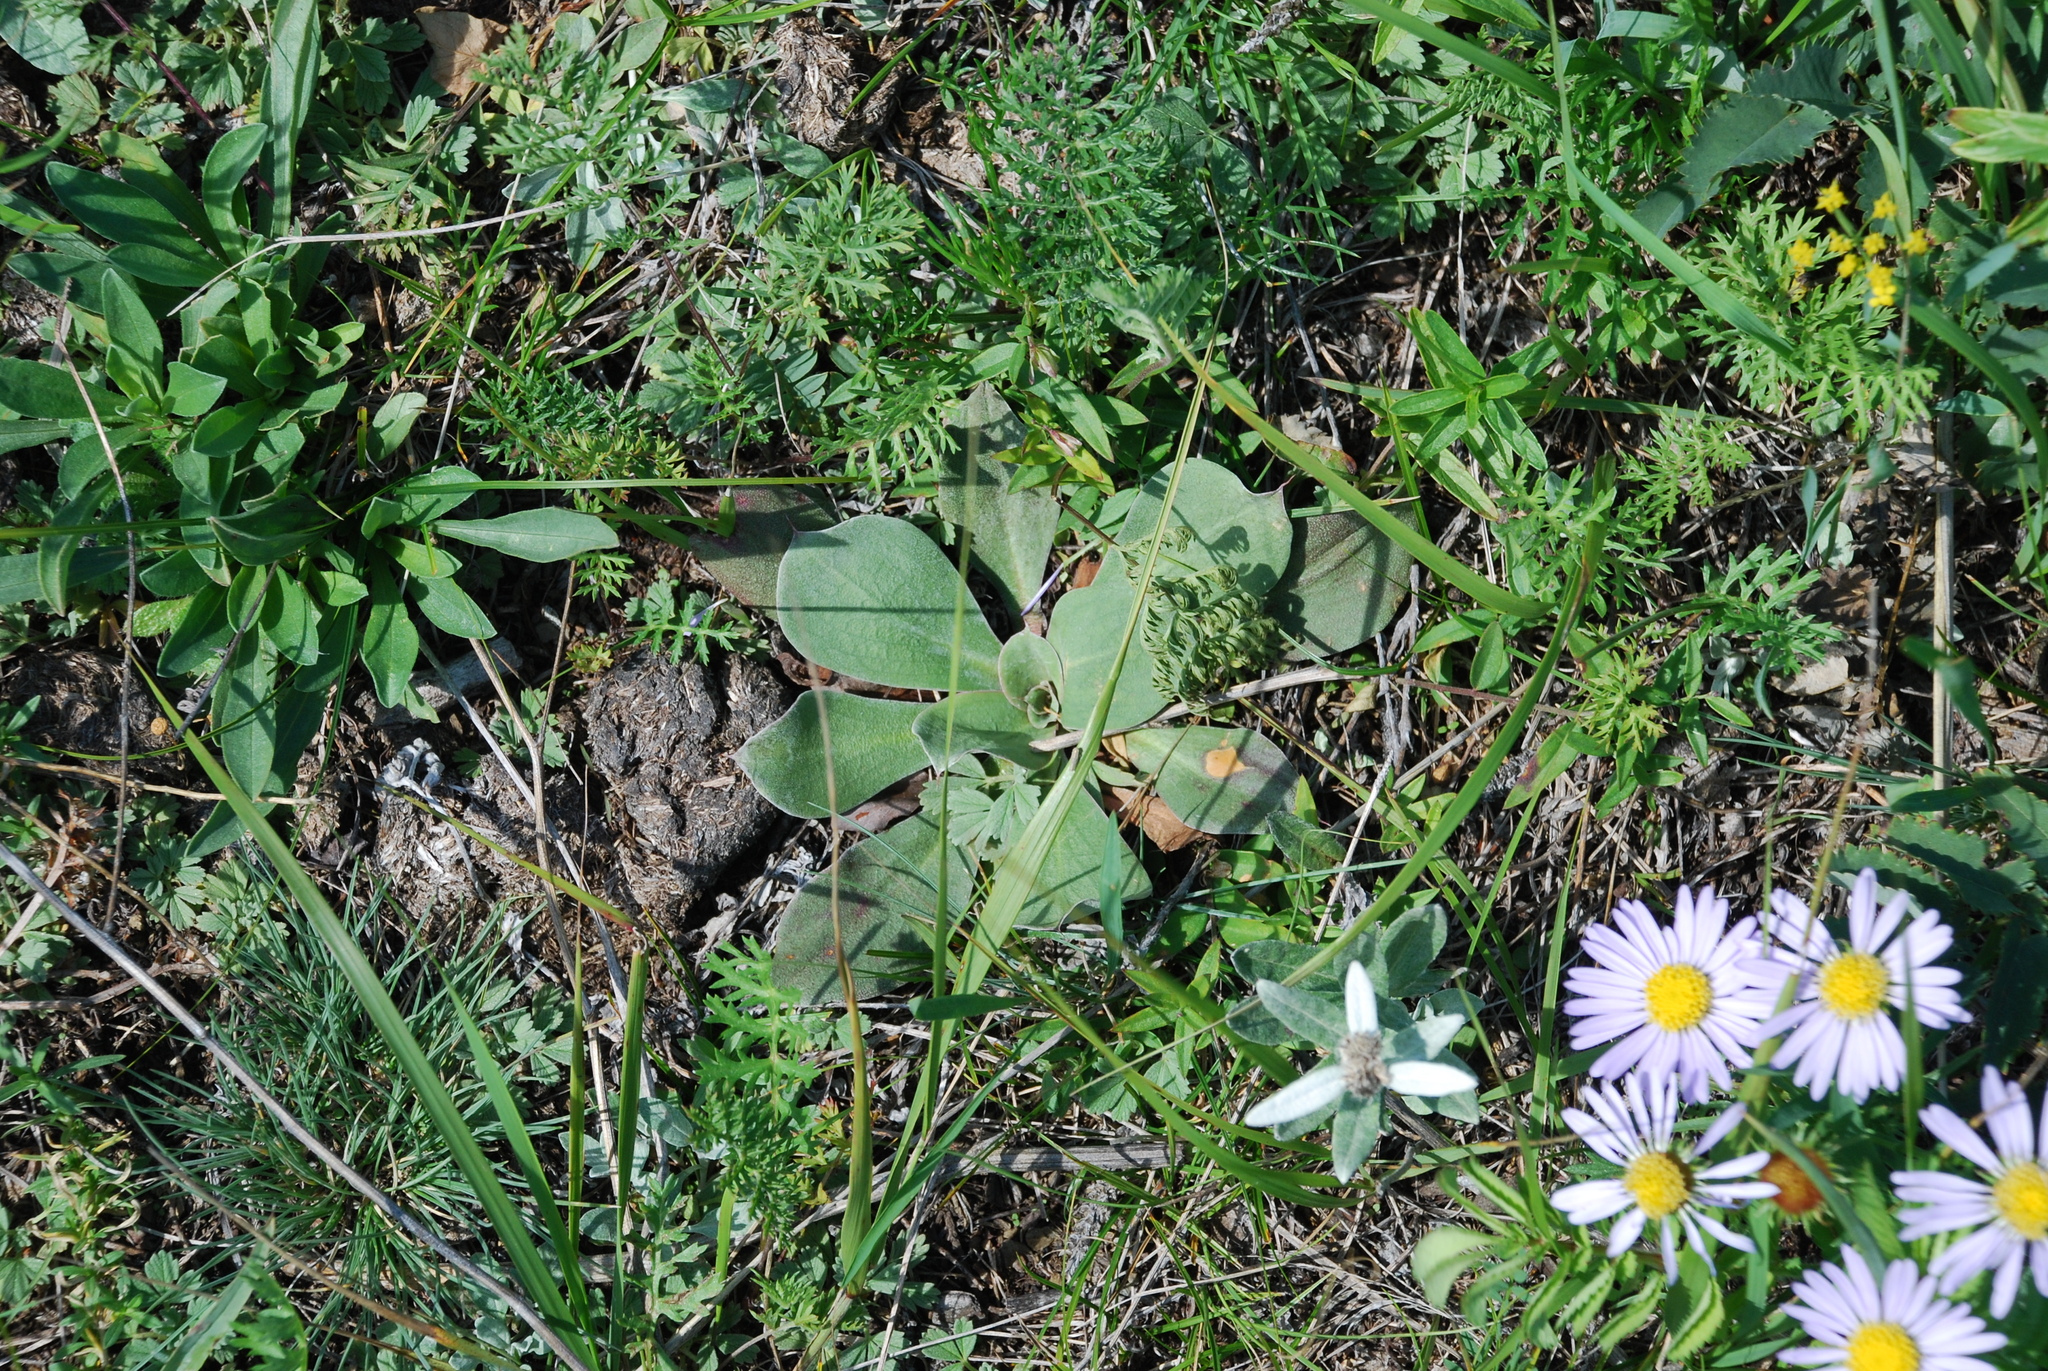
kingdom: Plantae
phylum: Tracheophyta
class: Magnoliopsida
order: Caryophyllales
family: Plumbaginaceae
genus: Goniolimon
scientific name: Goniolimon speciosum
